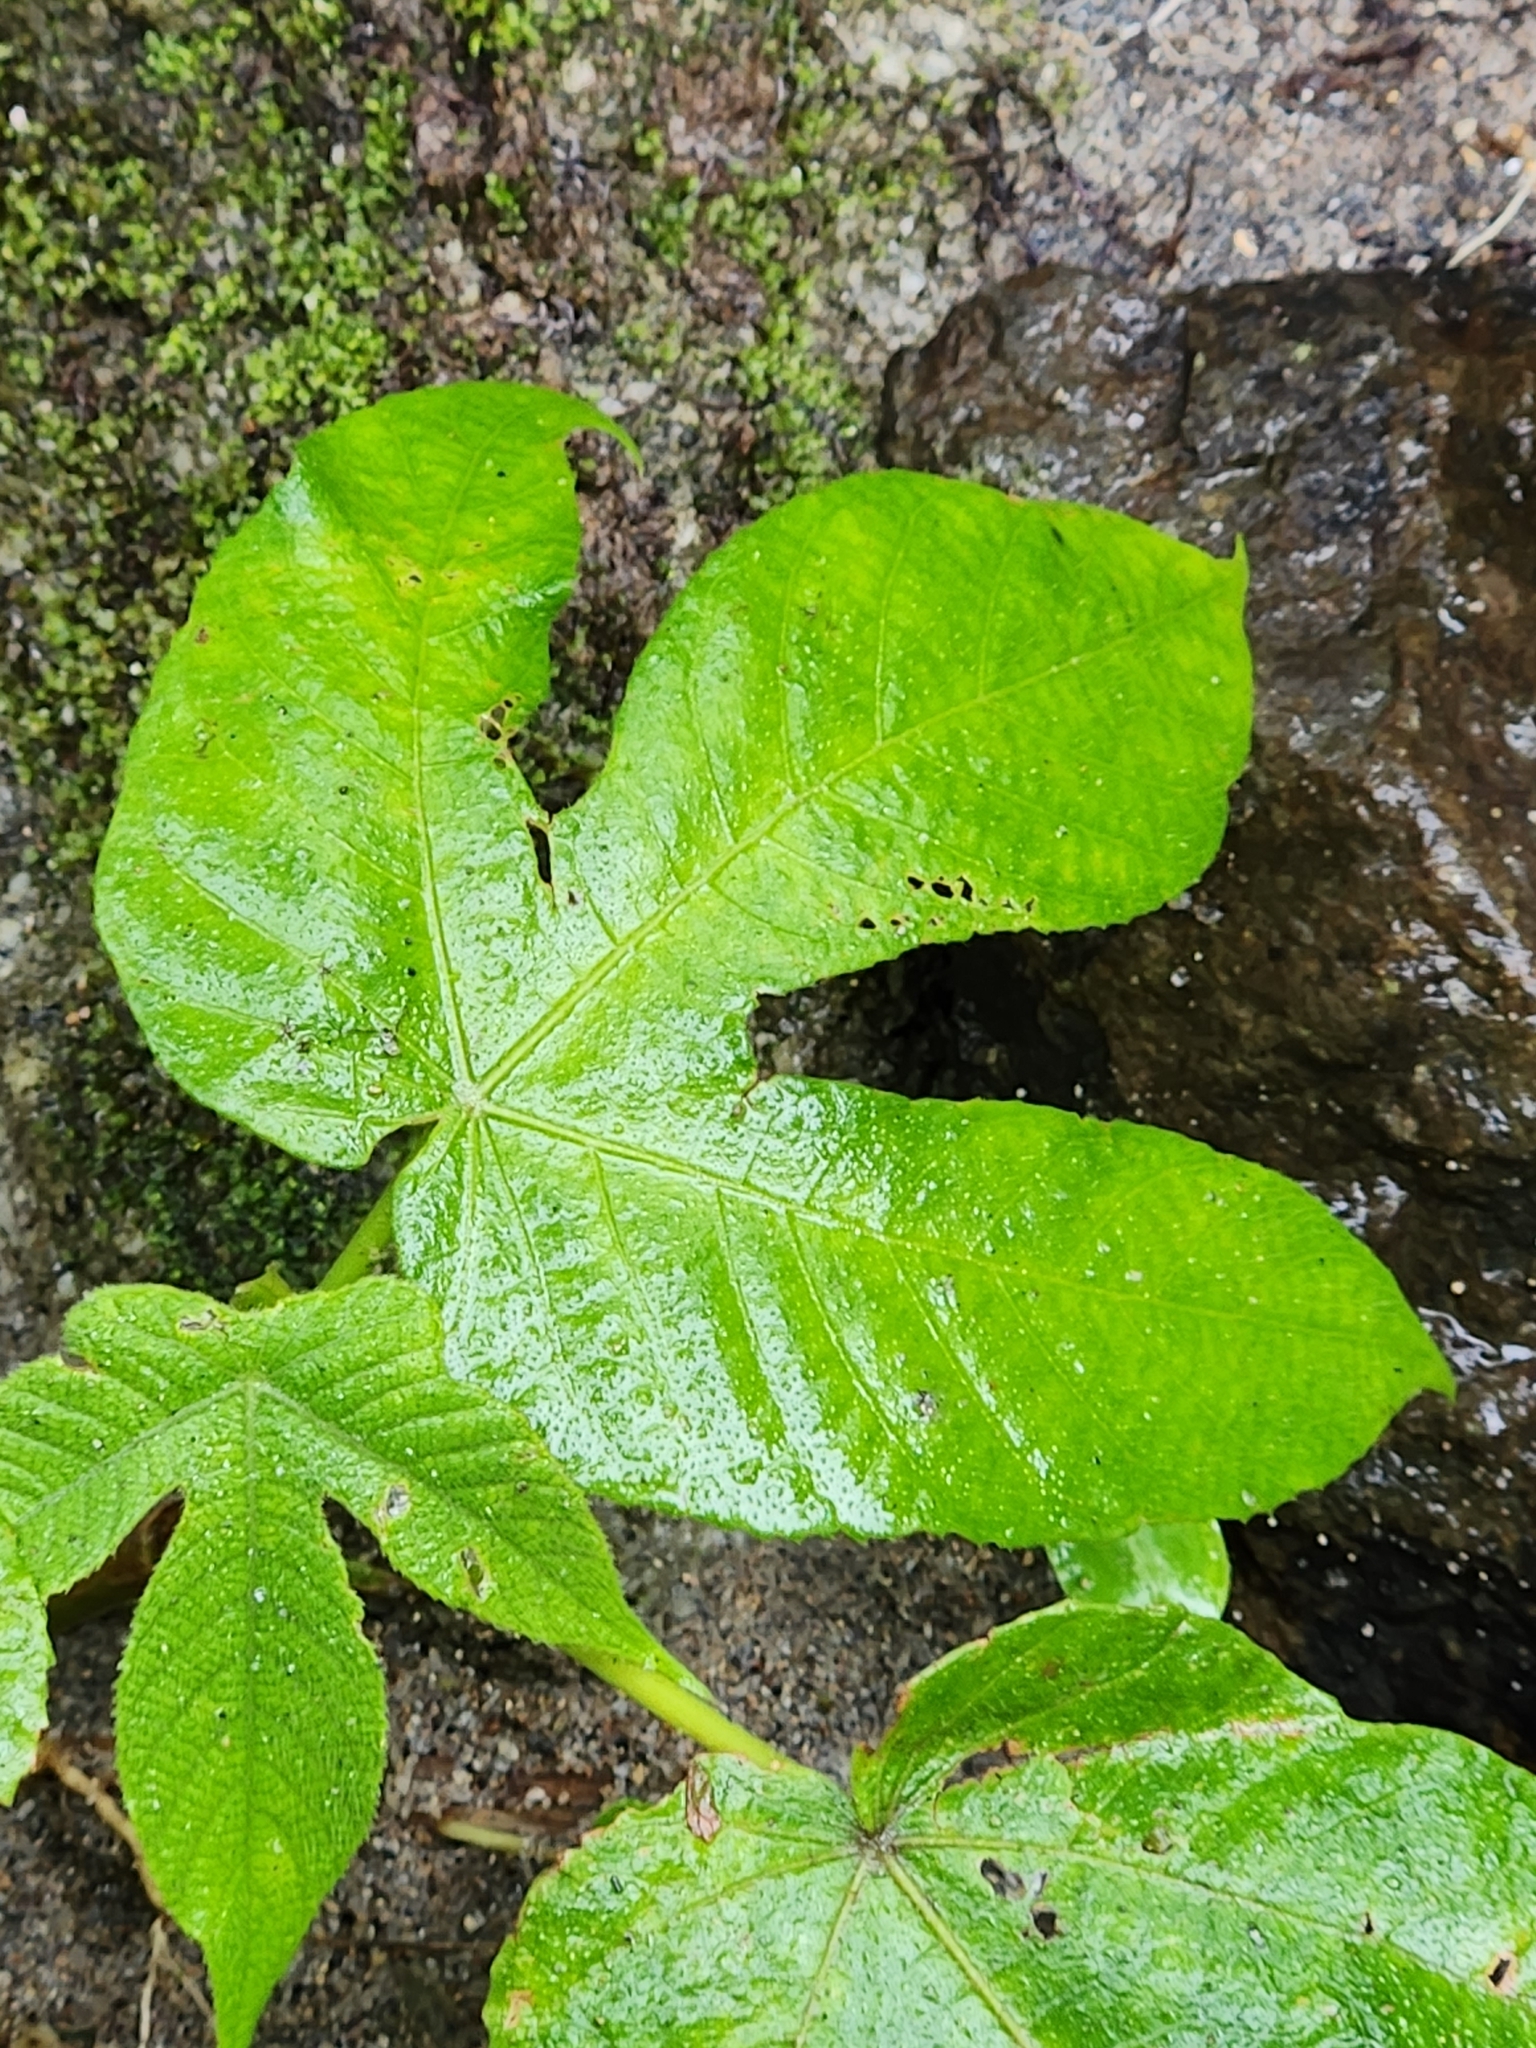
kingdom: Plantae
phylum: Tracheophyta
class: Magnoliopsida
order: Rosales
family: Urticaceae
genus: Cecropia
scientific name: Cecropia peltata
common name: Trumpet-tree
